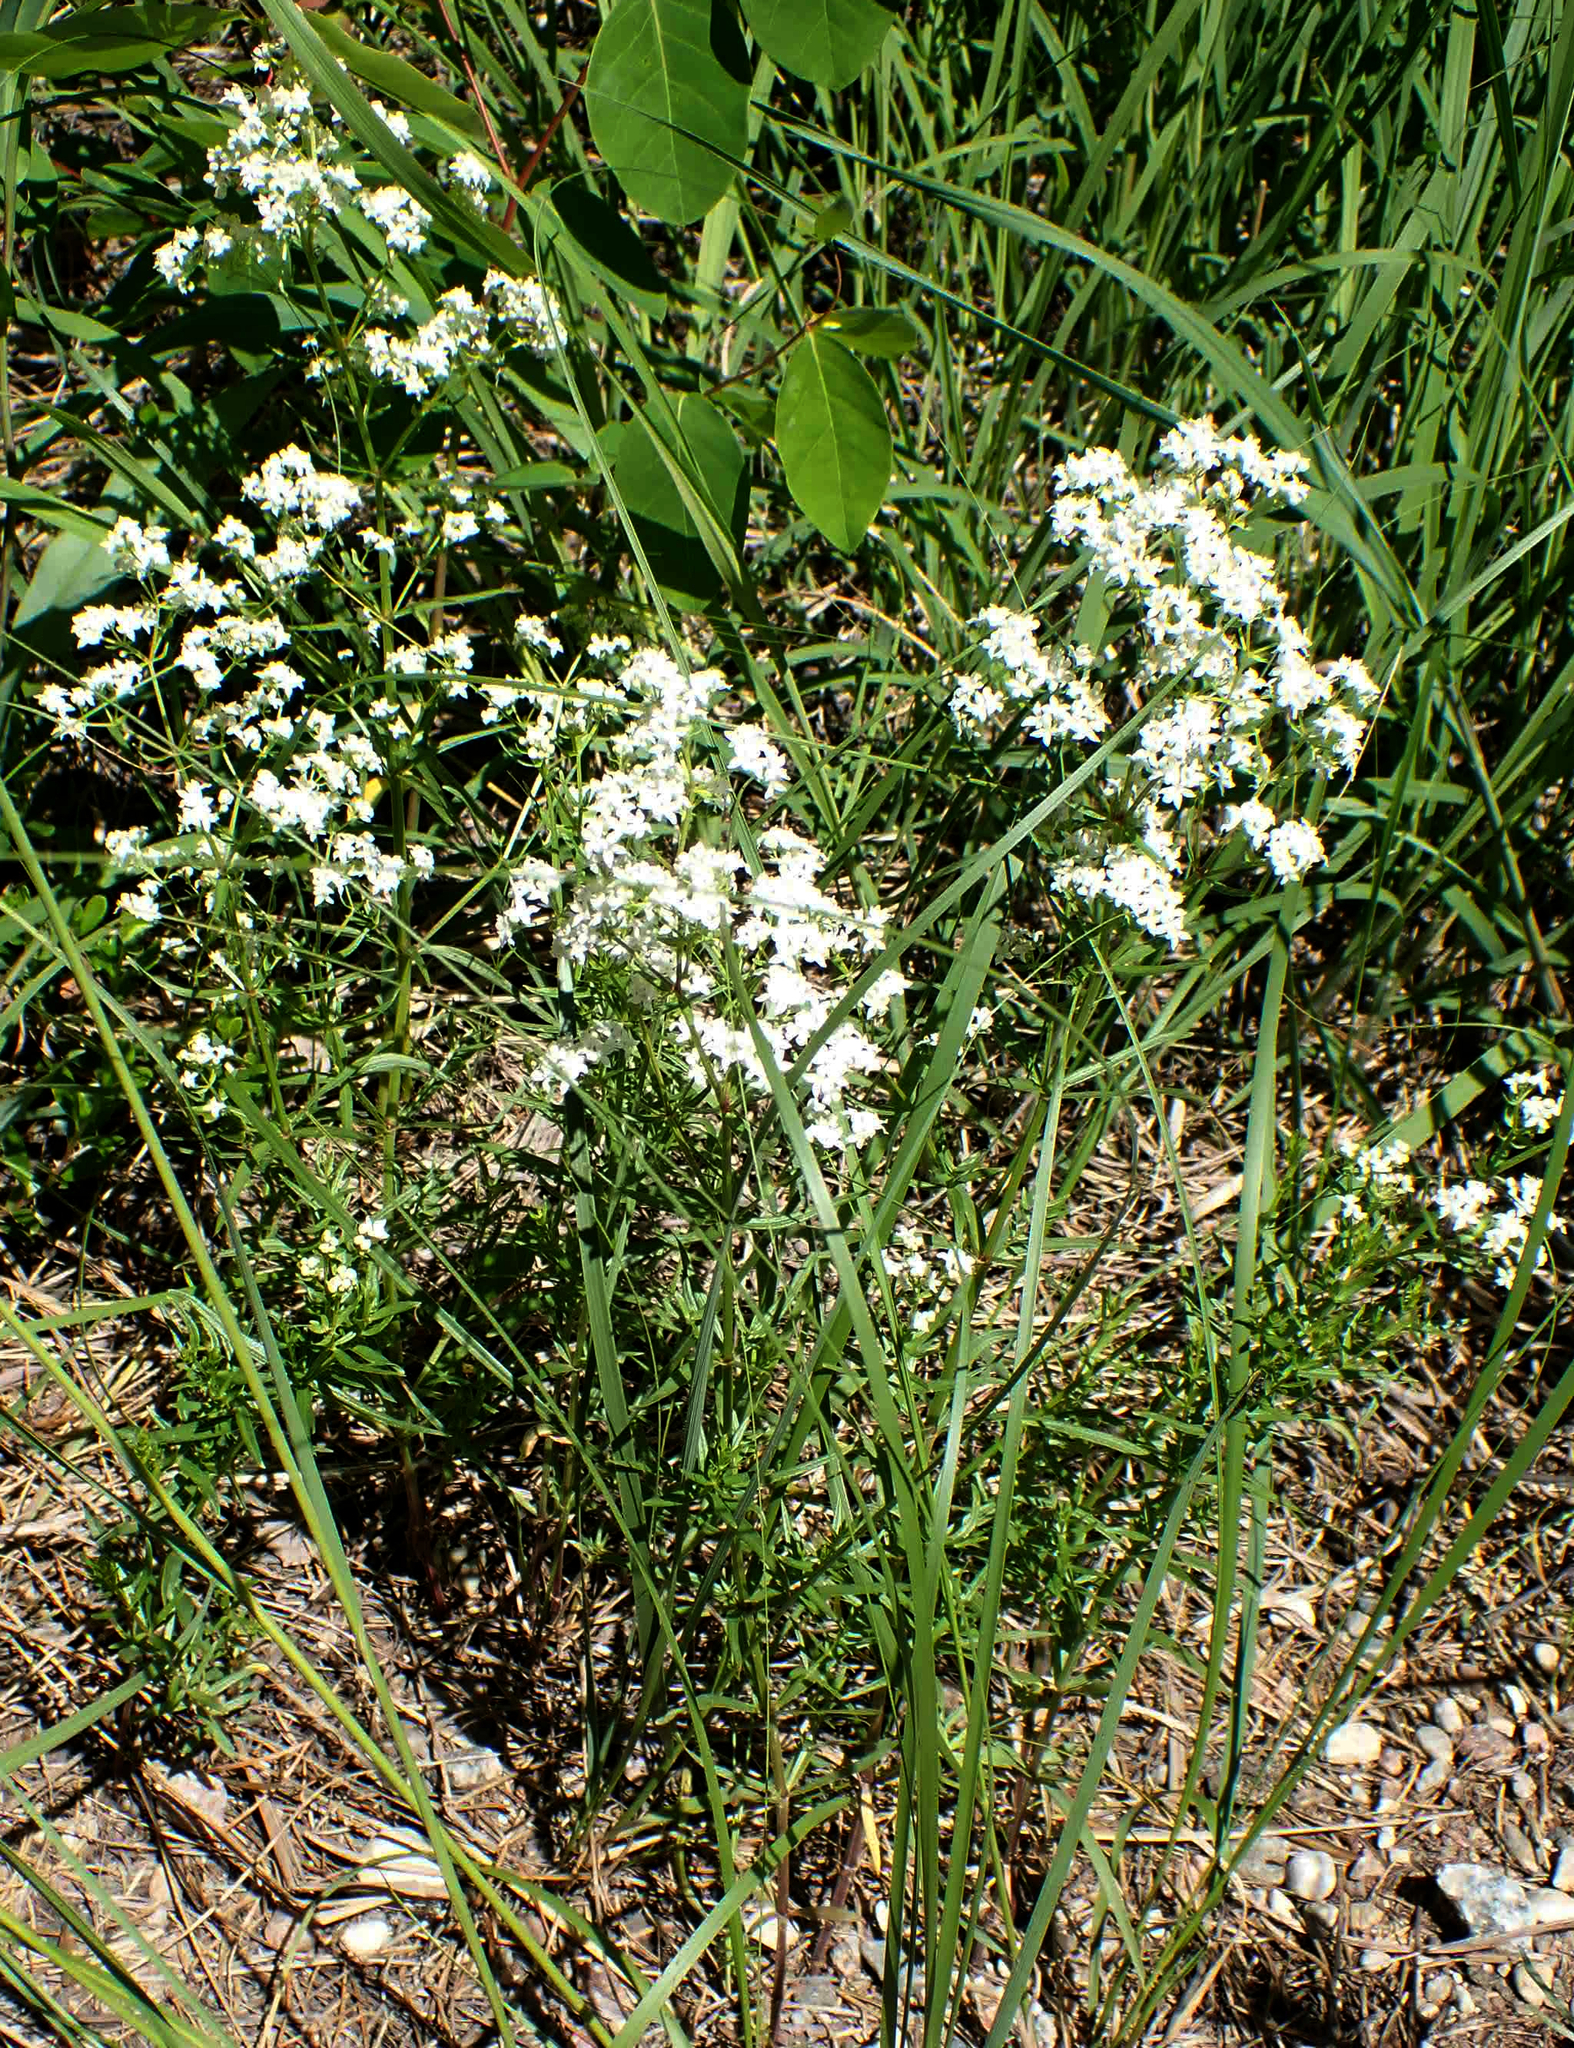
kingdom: Plantae
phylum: Tracheophyta
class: Magnoliopsida
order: Gentianales
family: Rubiaceae
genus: Galium
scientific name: Galium boreale
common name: Northern bedstraw
